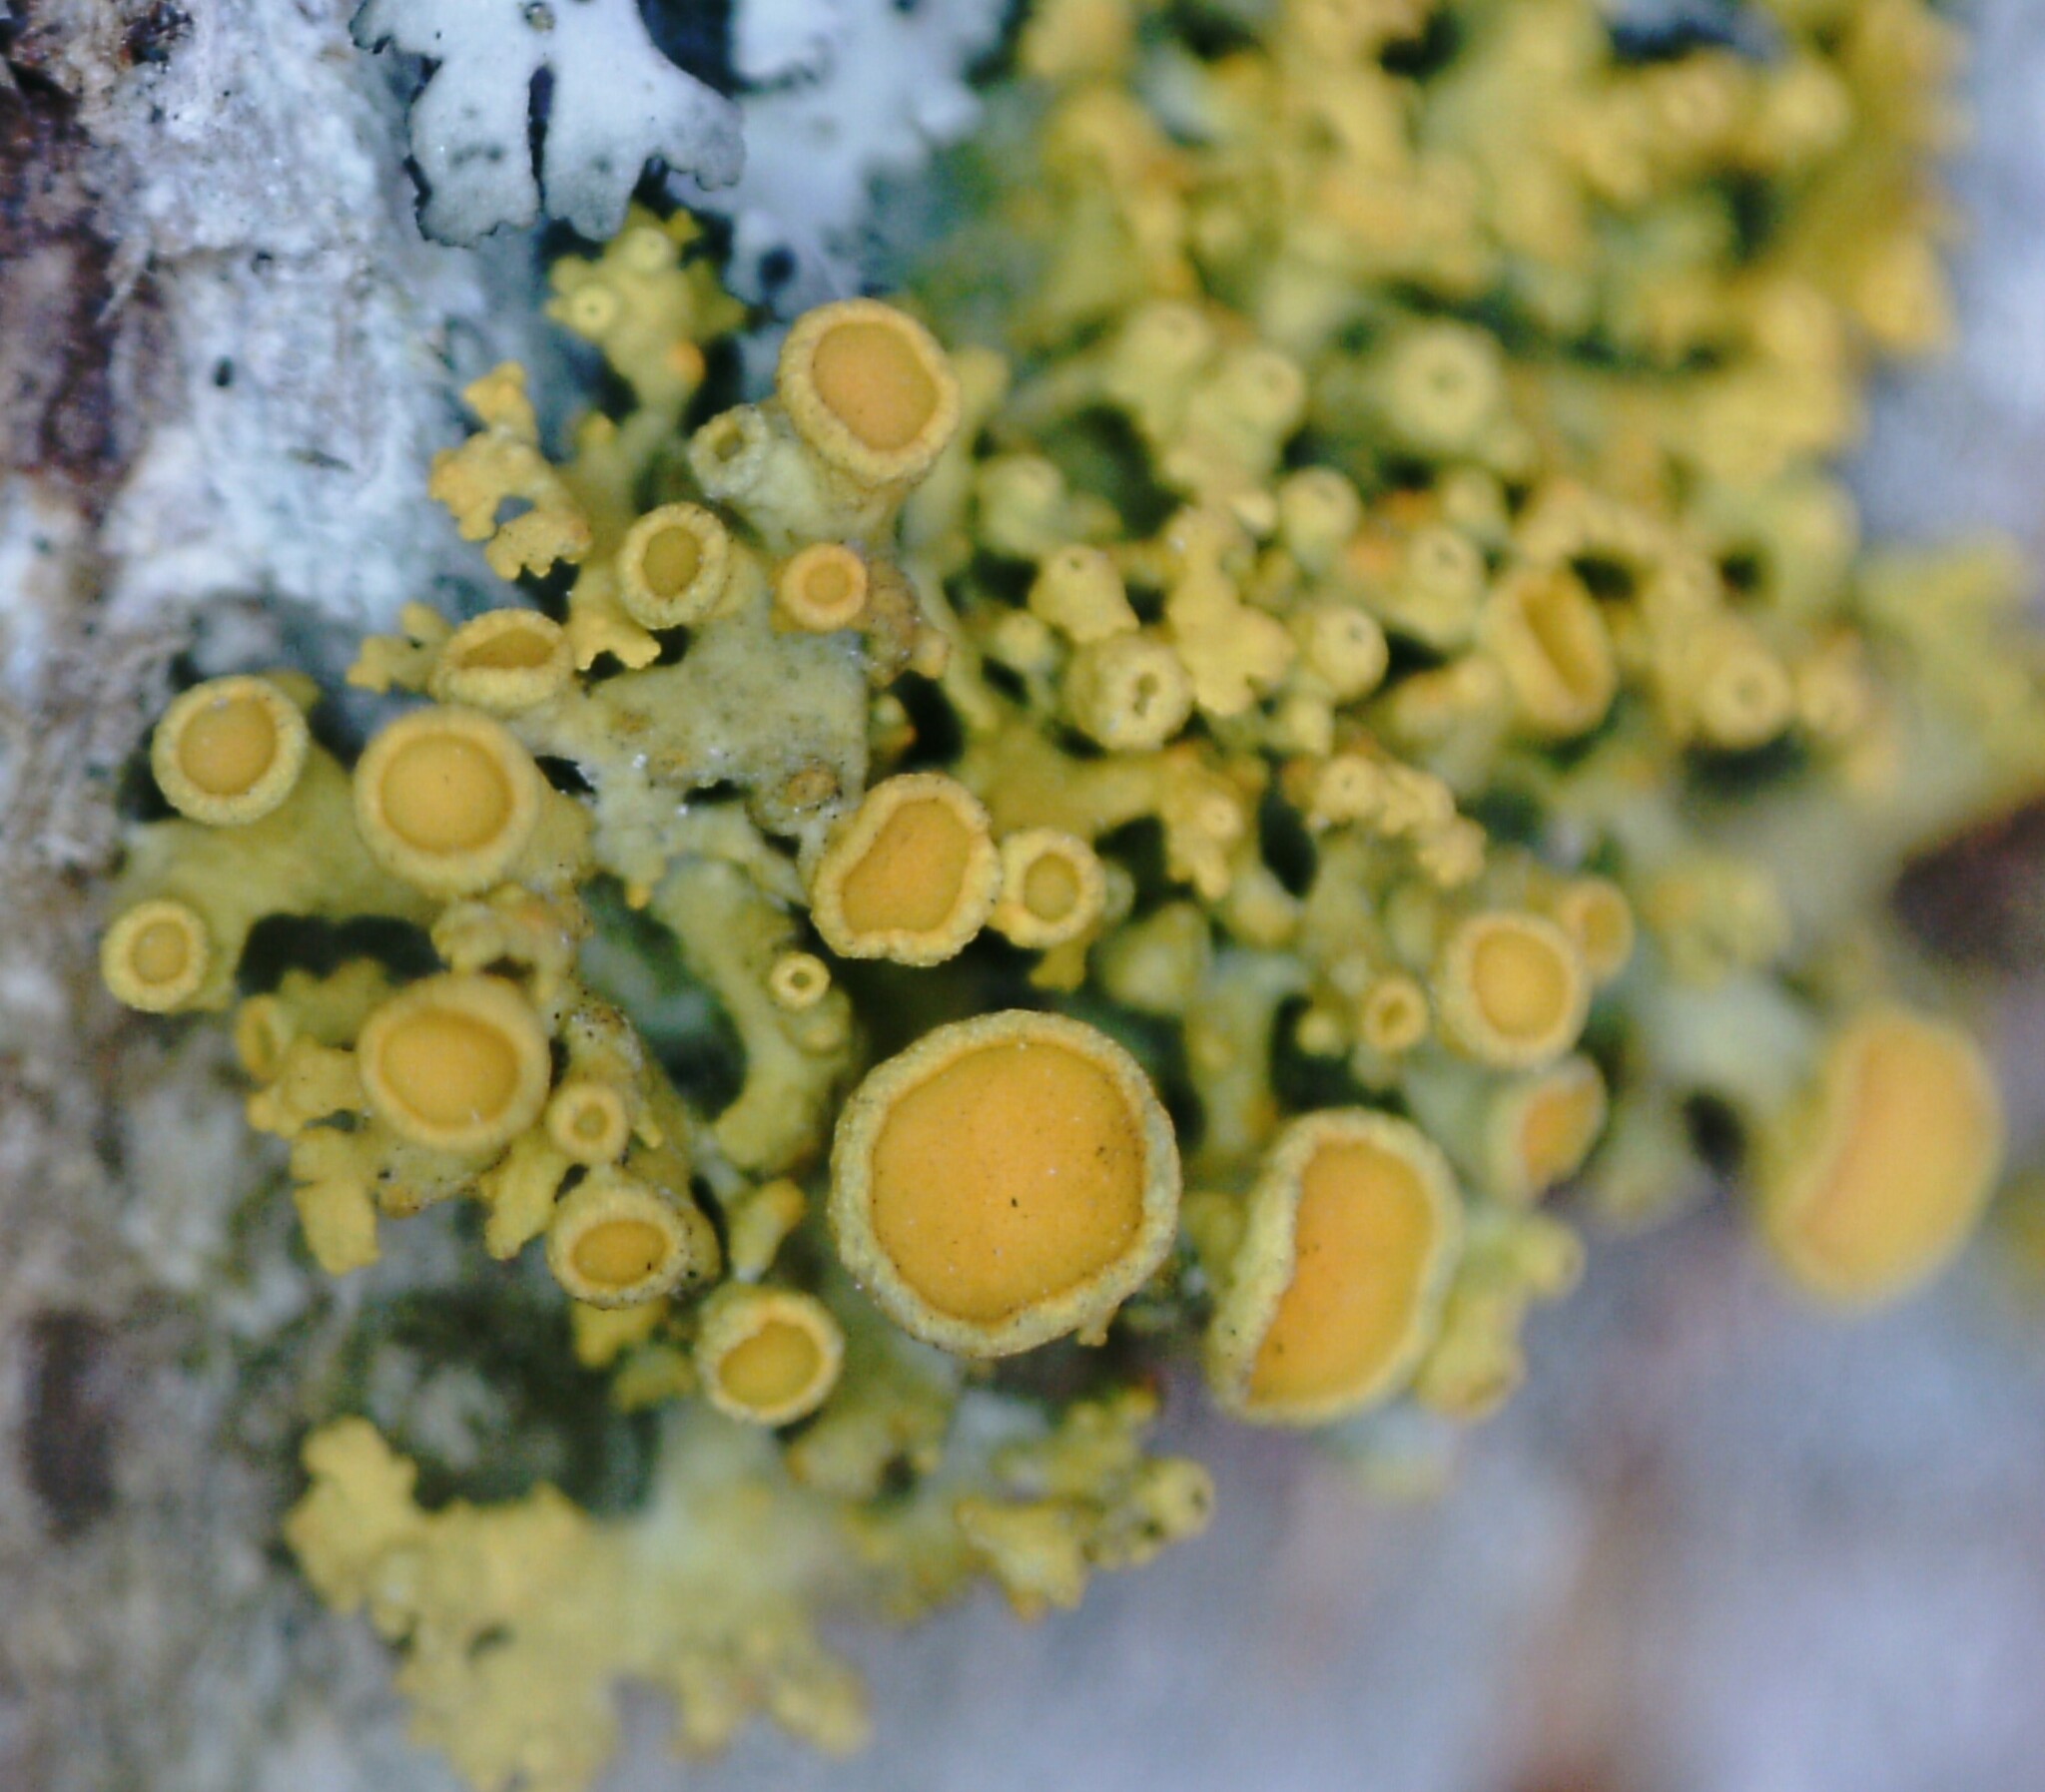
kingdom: Fungi
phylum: Ascomycota
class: Lecanoromycetes
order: Teloschistales
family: Teloschistaceae
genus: Polycauliona
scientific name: Polycauliona polycarpa
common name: Pin-cushion sunburst lichen
